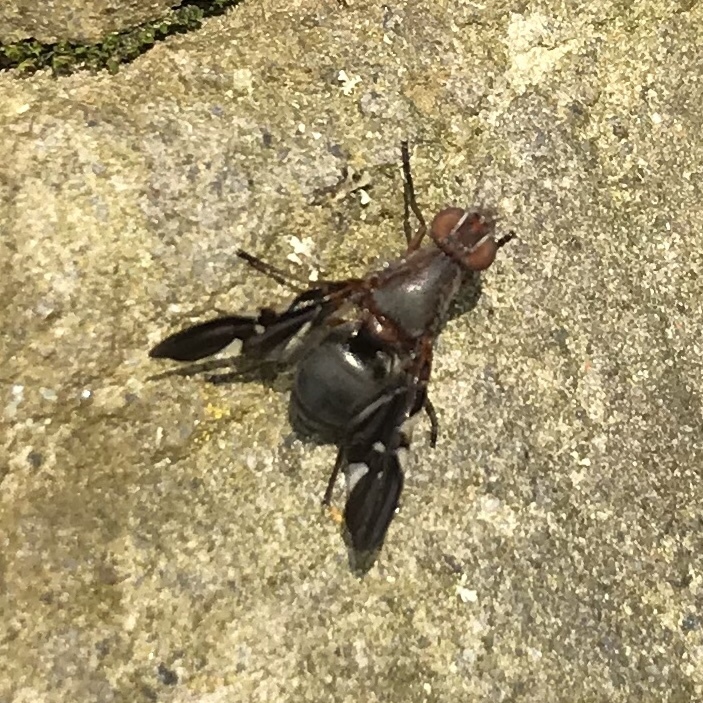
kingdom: Animalia
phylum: Arthropoda
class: Insecta
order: Diptera
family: Ulidiidae
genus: Delphinia
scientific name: Delphinia picta
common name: Common picture-winged fly
